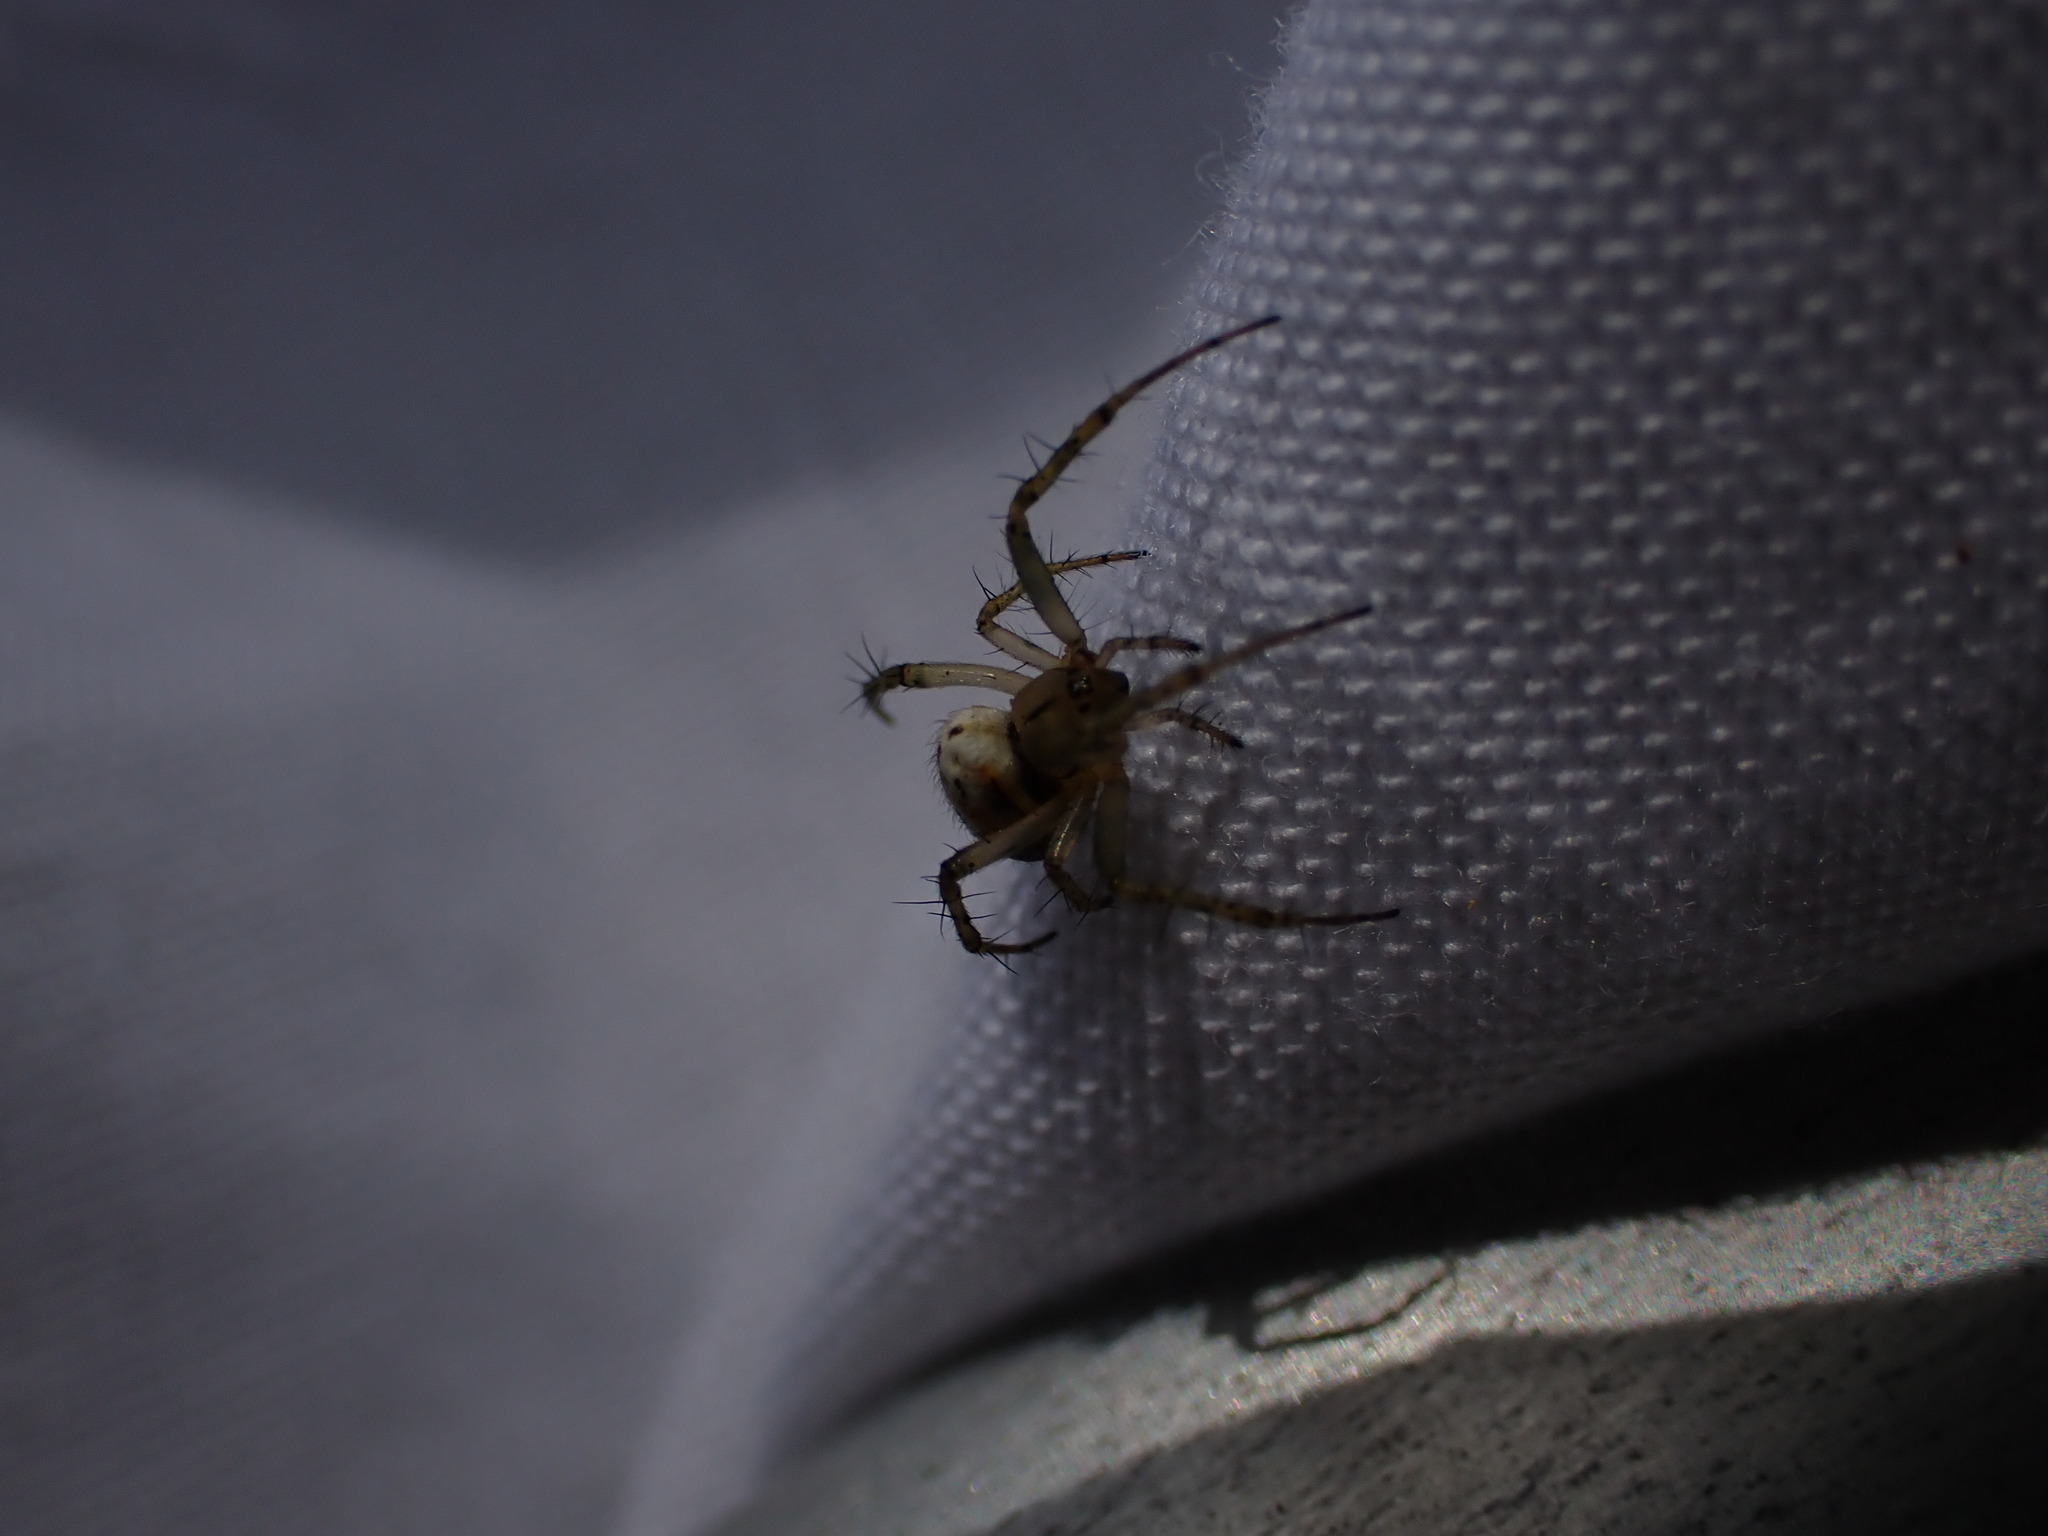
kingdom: Animalia
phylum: Arthropoda
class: Arachnida
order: Araneae
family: Araneidae
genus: Mangora
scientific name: Mangora acalypha
